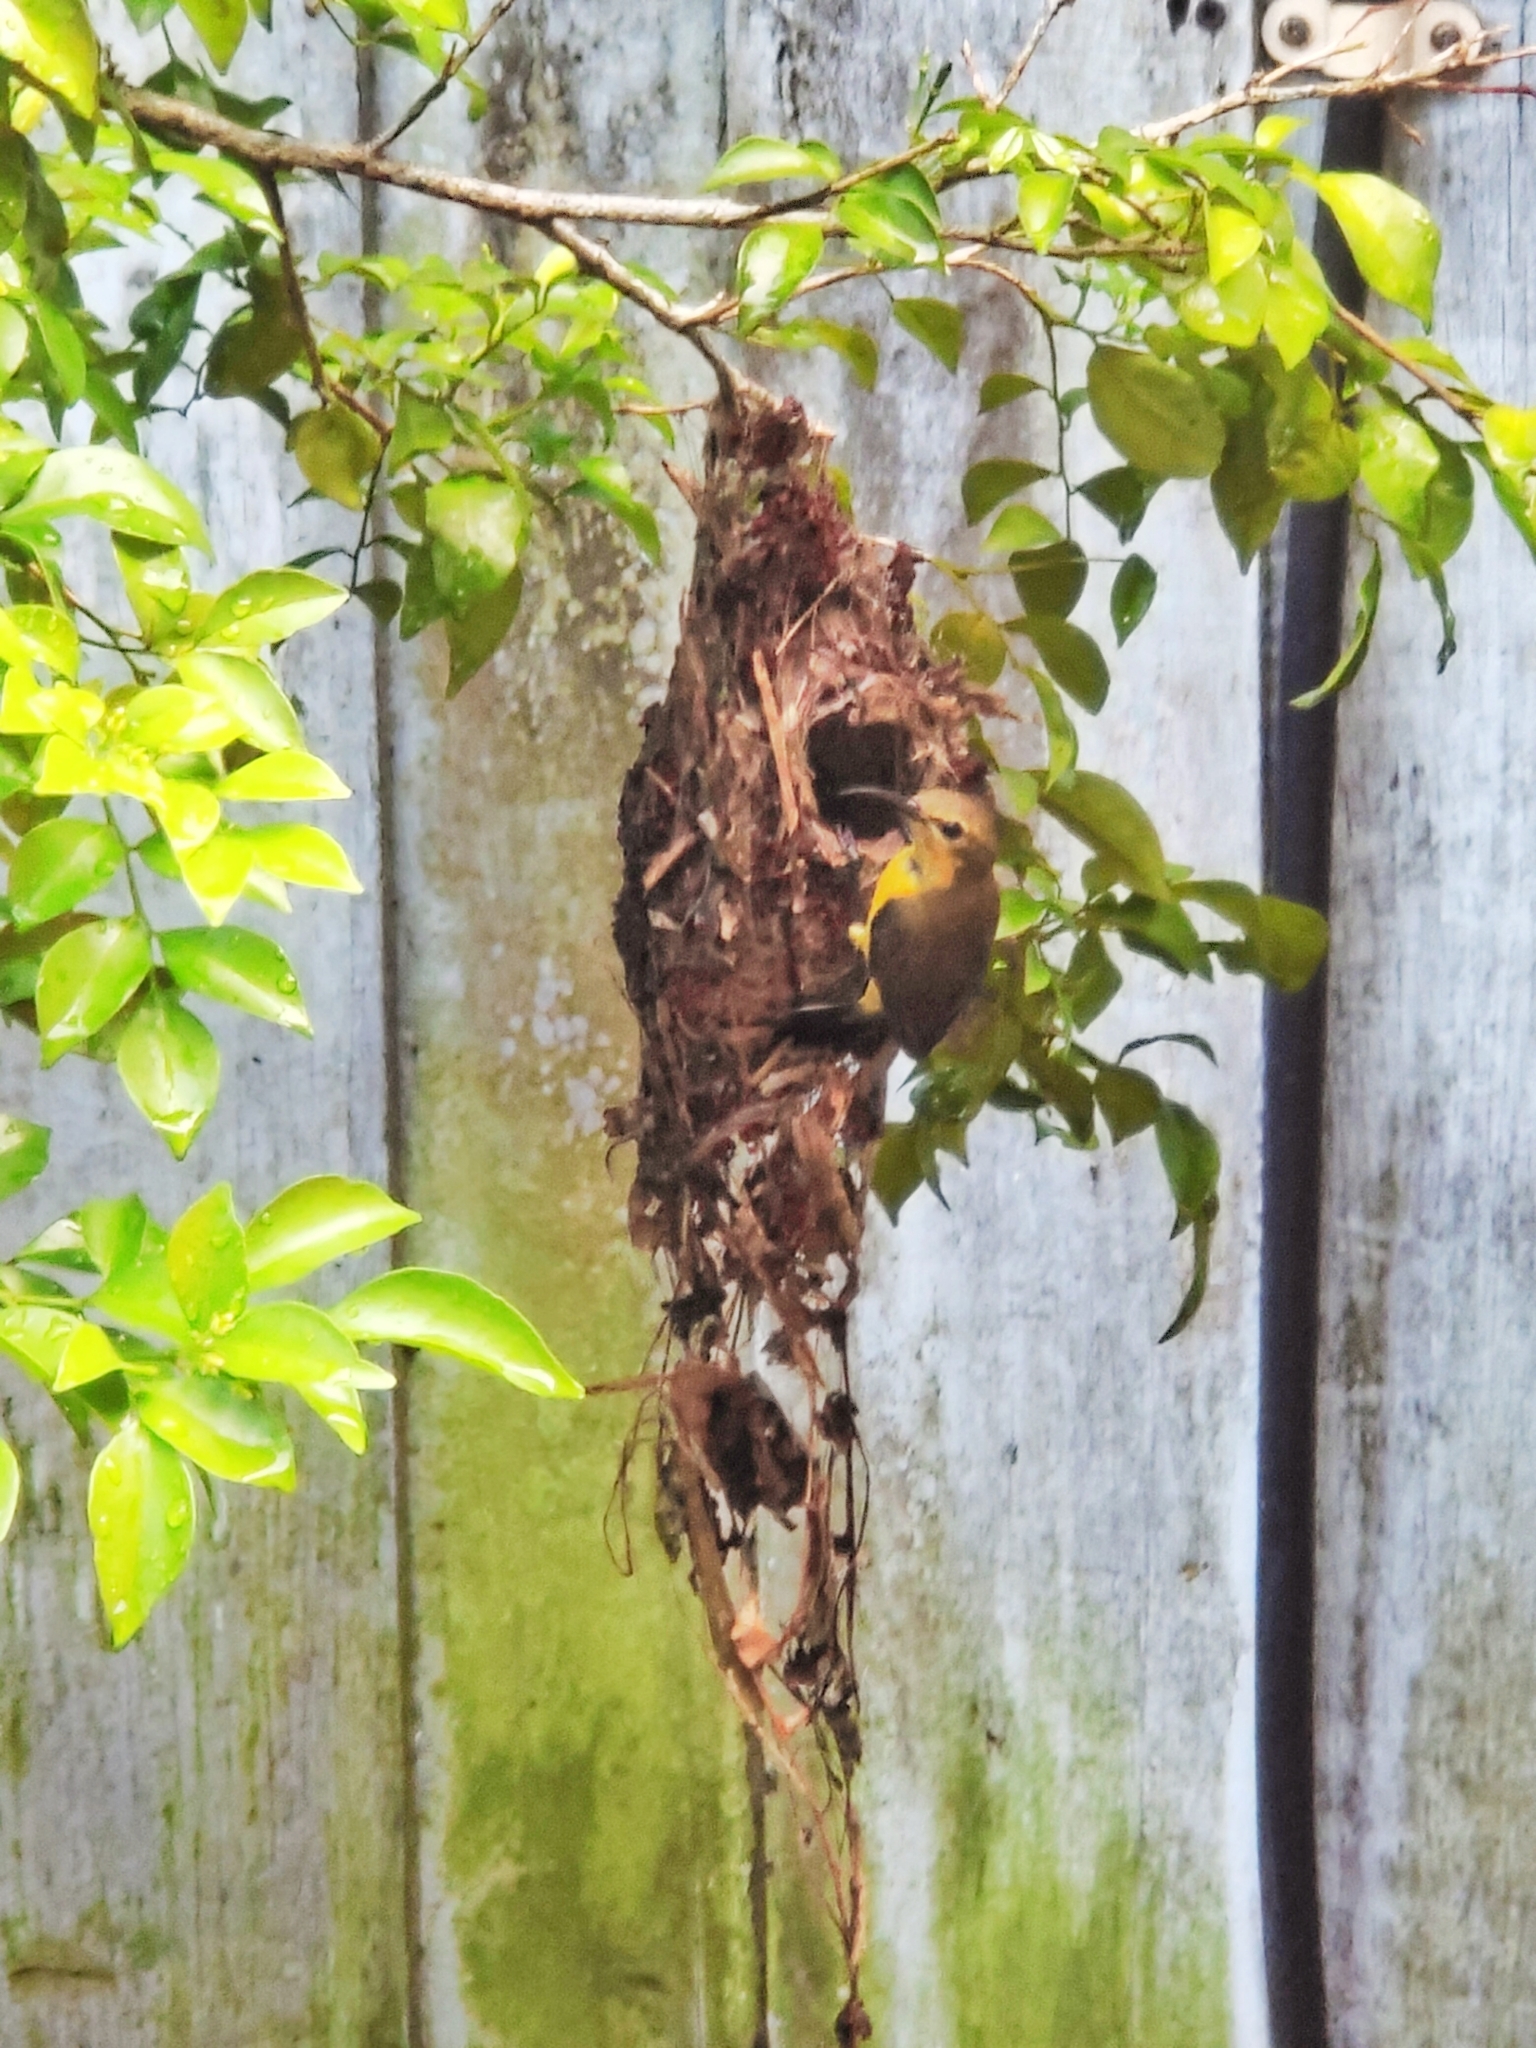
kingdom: Animalia
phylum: Chordata
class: Aves
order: Passeriformes
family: Nectariniidae
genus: Cinnyris
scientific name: Cinnyris
